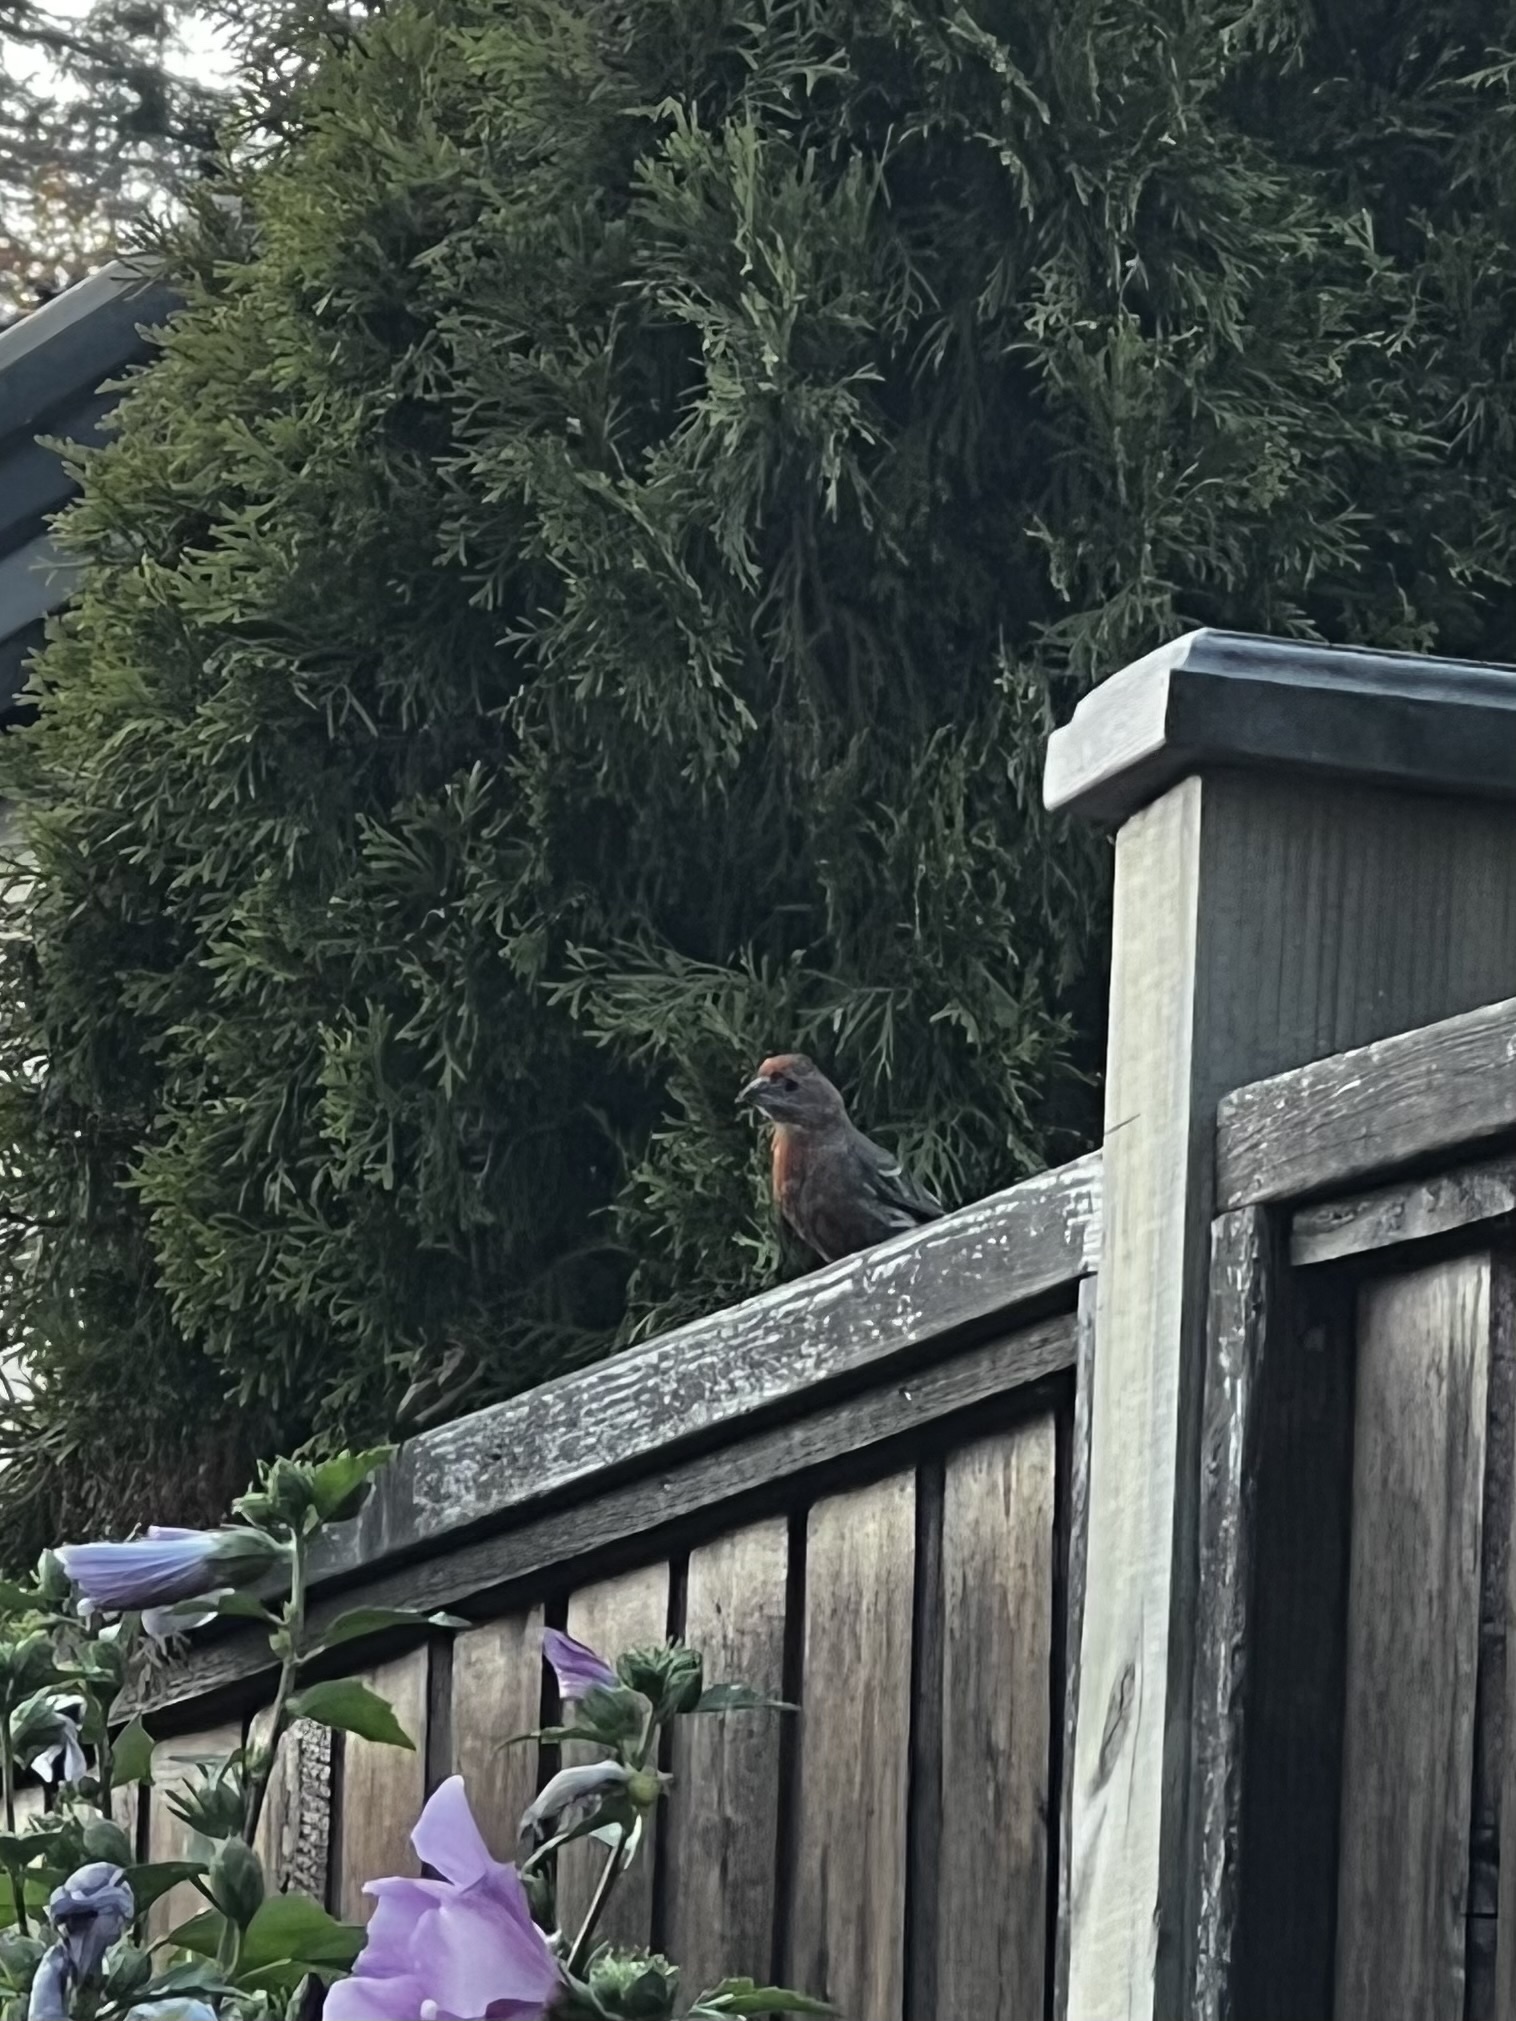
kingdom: Animalia
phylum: Chordata
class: Aves
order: Passeriformes
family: Fringillidae
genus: Haemorhous
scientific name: Haemorhous mexicanus
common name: House finch
